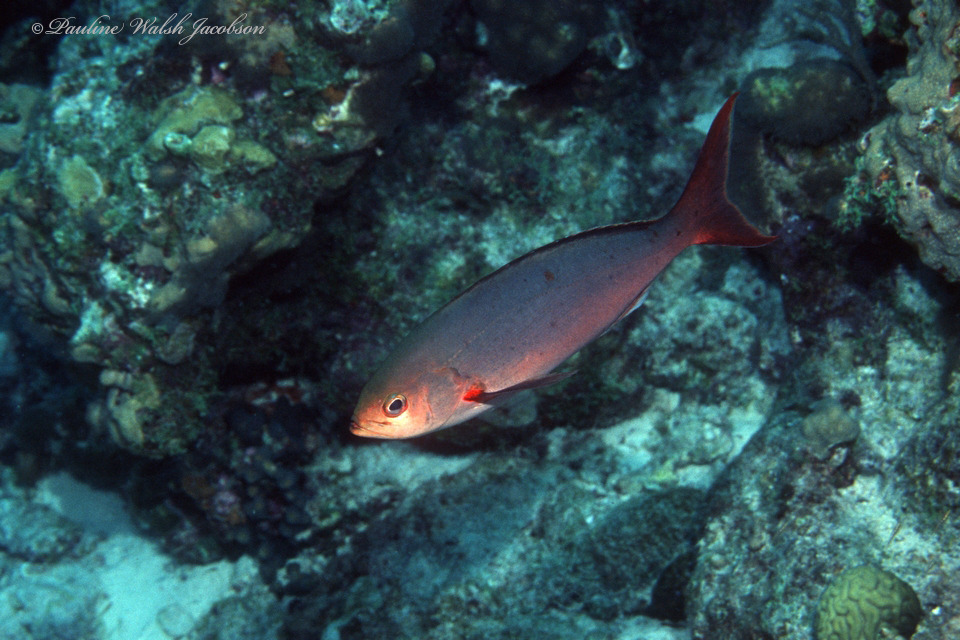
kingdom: Animalia
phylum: Chordata
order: Perciformes
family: Serranidae
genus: Paranthias
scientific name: Paranthias furcifer
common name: Creole-fish
